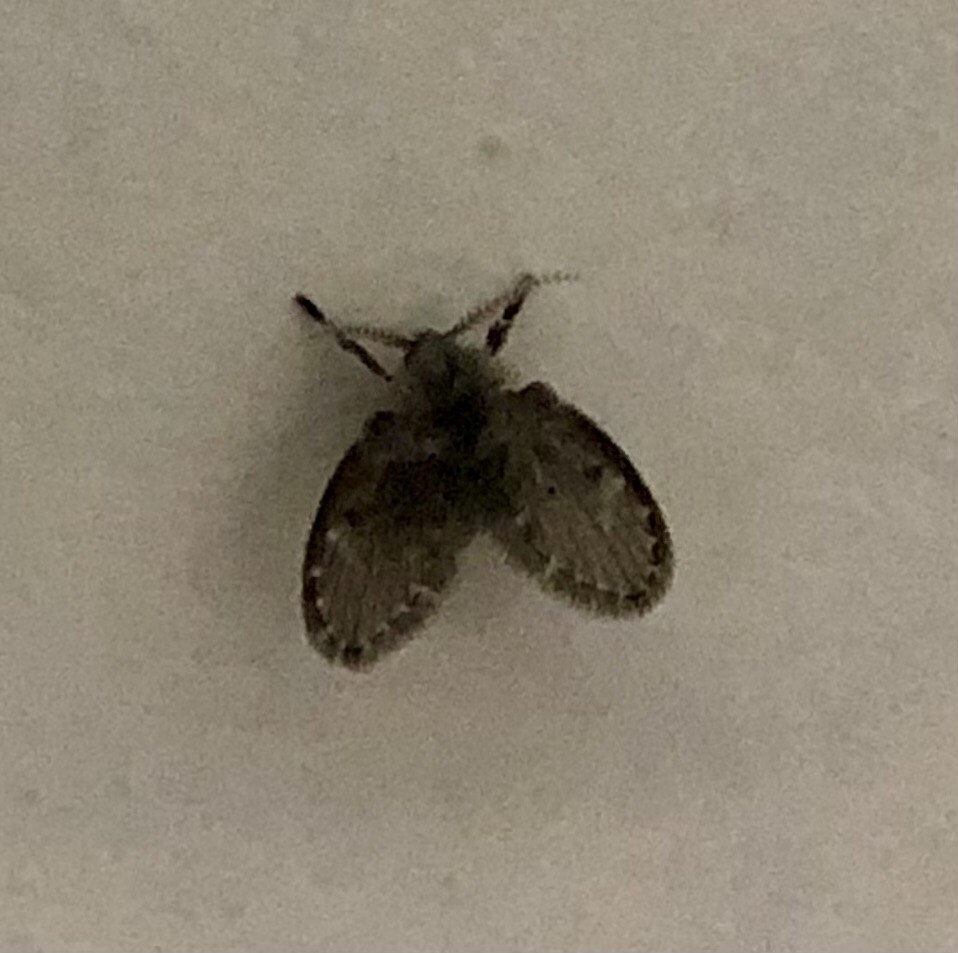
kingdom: Animalia
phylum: Arthropoda
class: Insecta
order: Diptera
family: Psychodidae
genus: Clogmia
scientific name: Clogmia albipunctatus
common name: White-spotted moth fly
